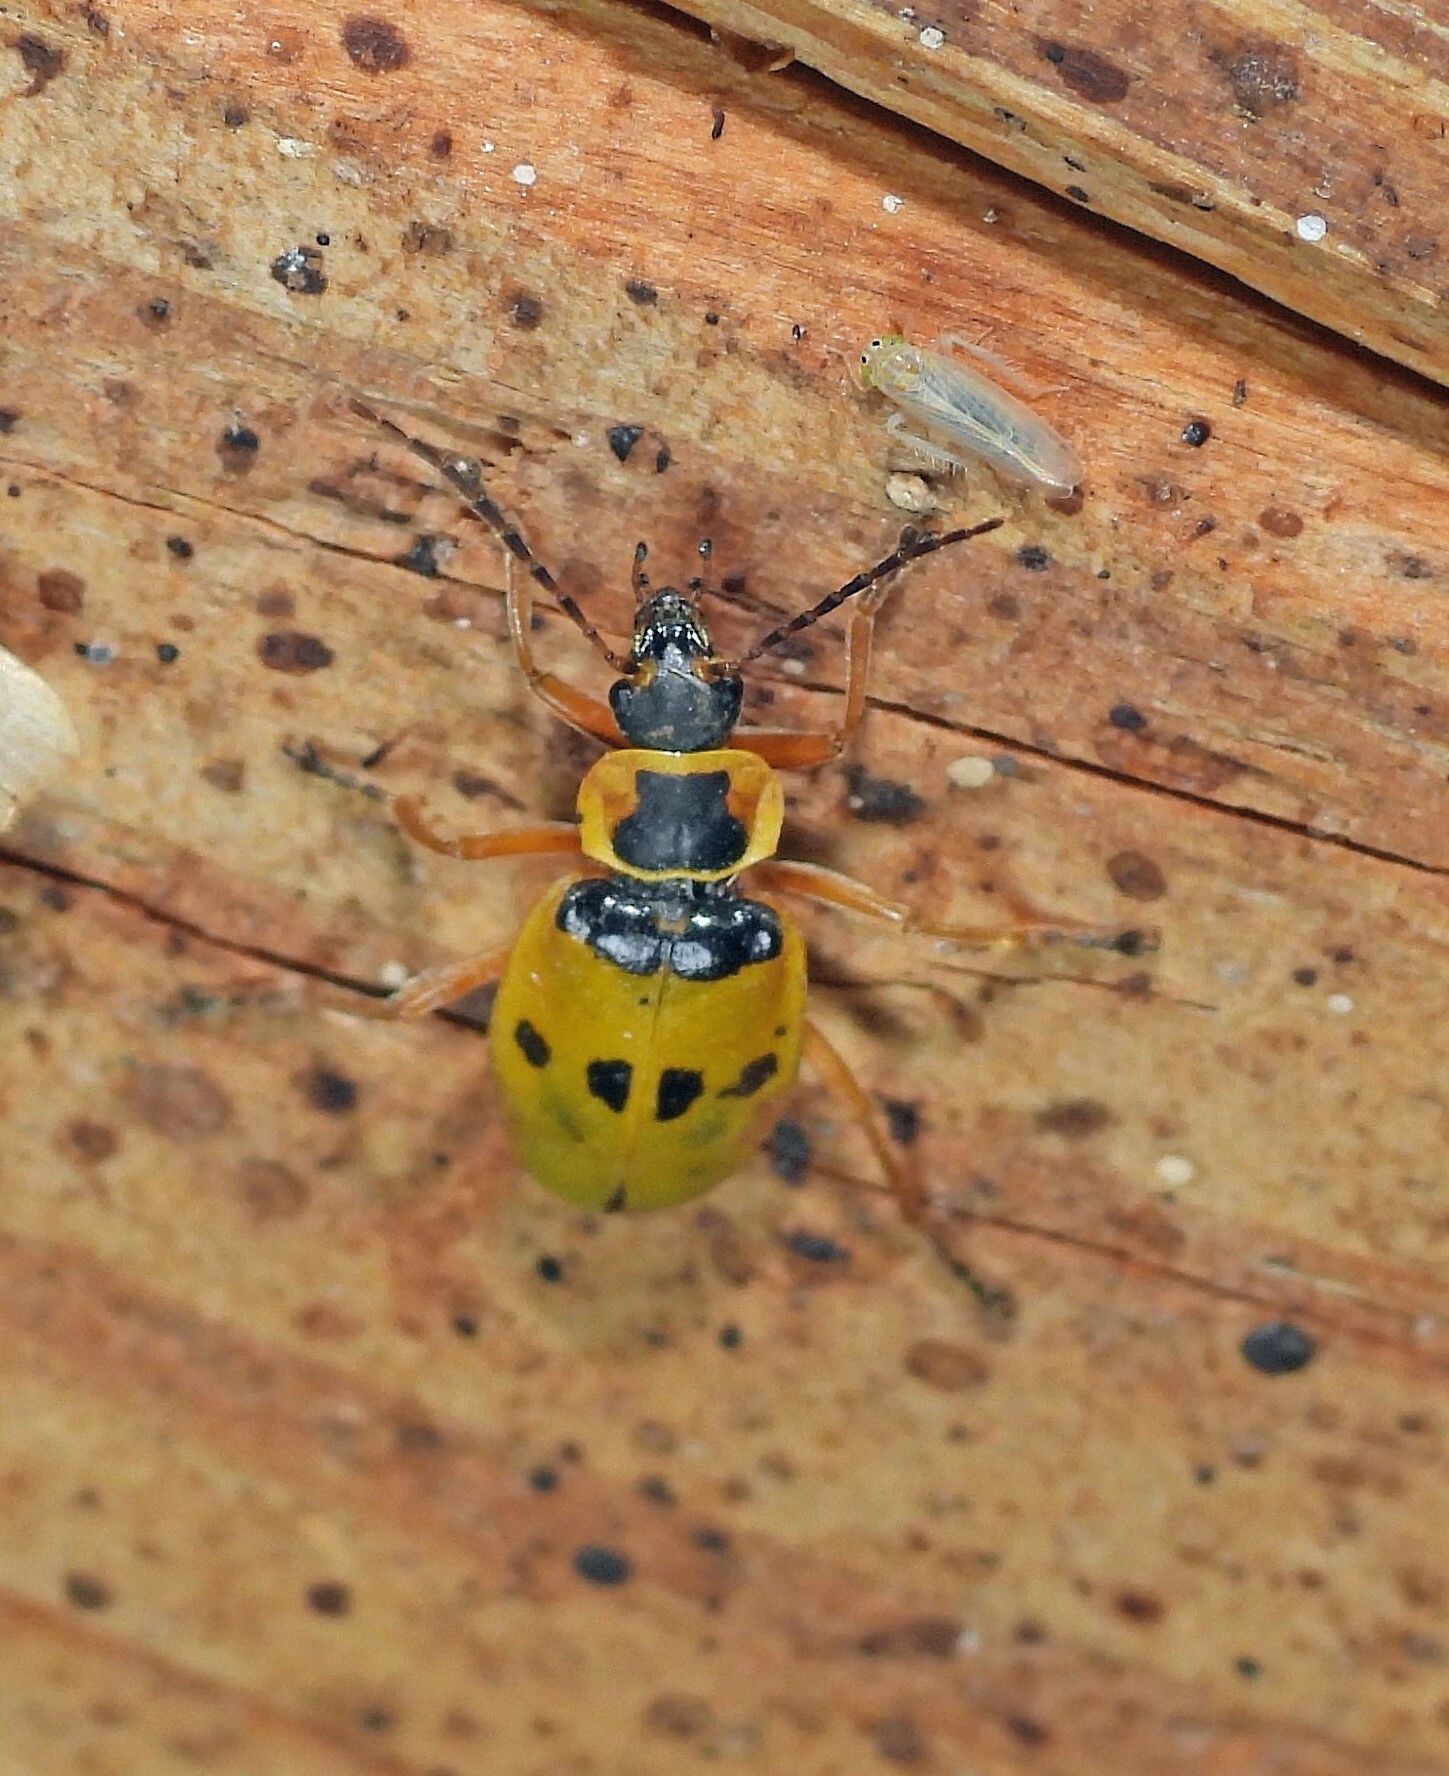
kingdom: Animalia
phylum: Arthropoda
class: Insecta
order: Coleoptera
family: Cantharidae
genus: Chauliognathus
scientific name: Chauliognathus
